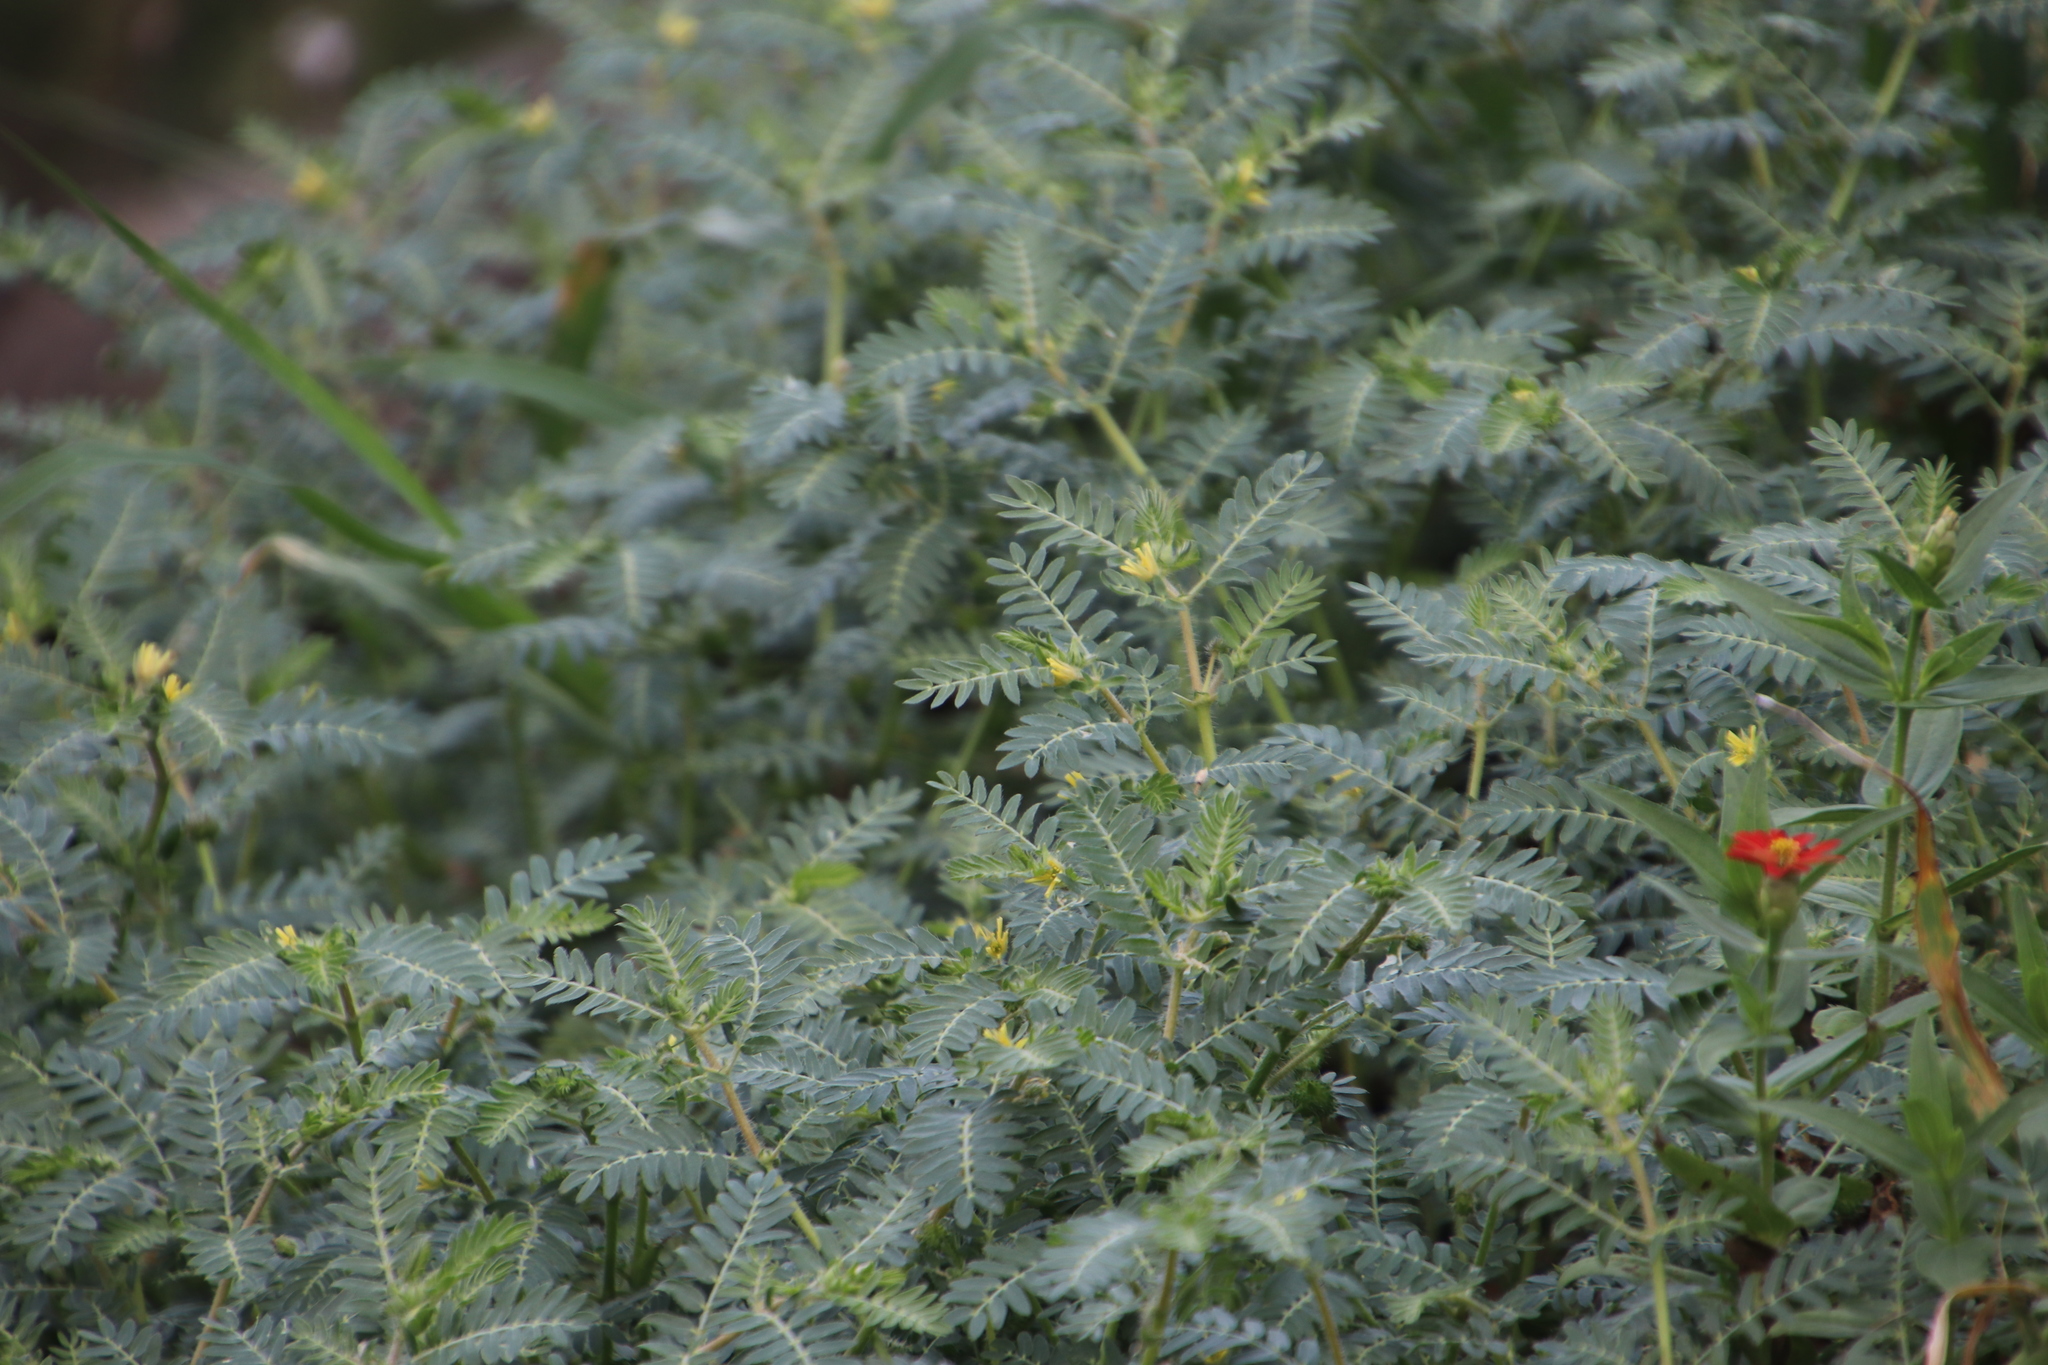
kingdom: Plantae
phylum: Tracheophyta
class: Magnoliopsida
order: Zygophyllales
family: Zygophyllaceae
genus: Tribulus
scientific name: Tribulus terrestris
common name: Puncturevine
